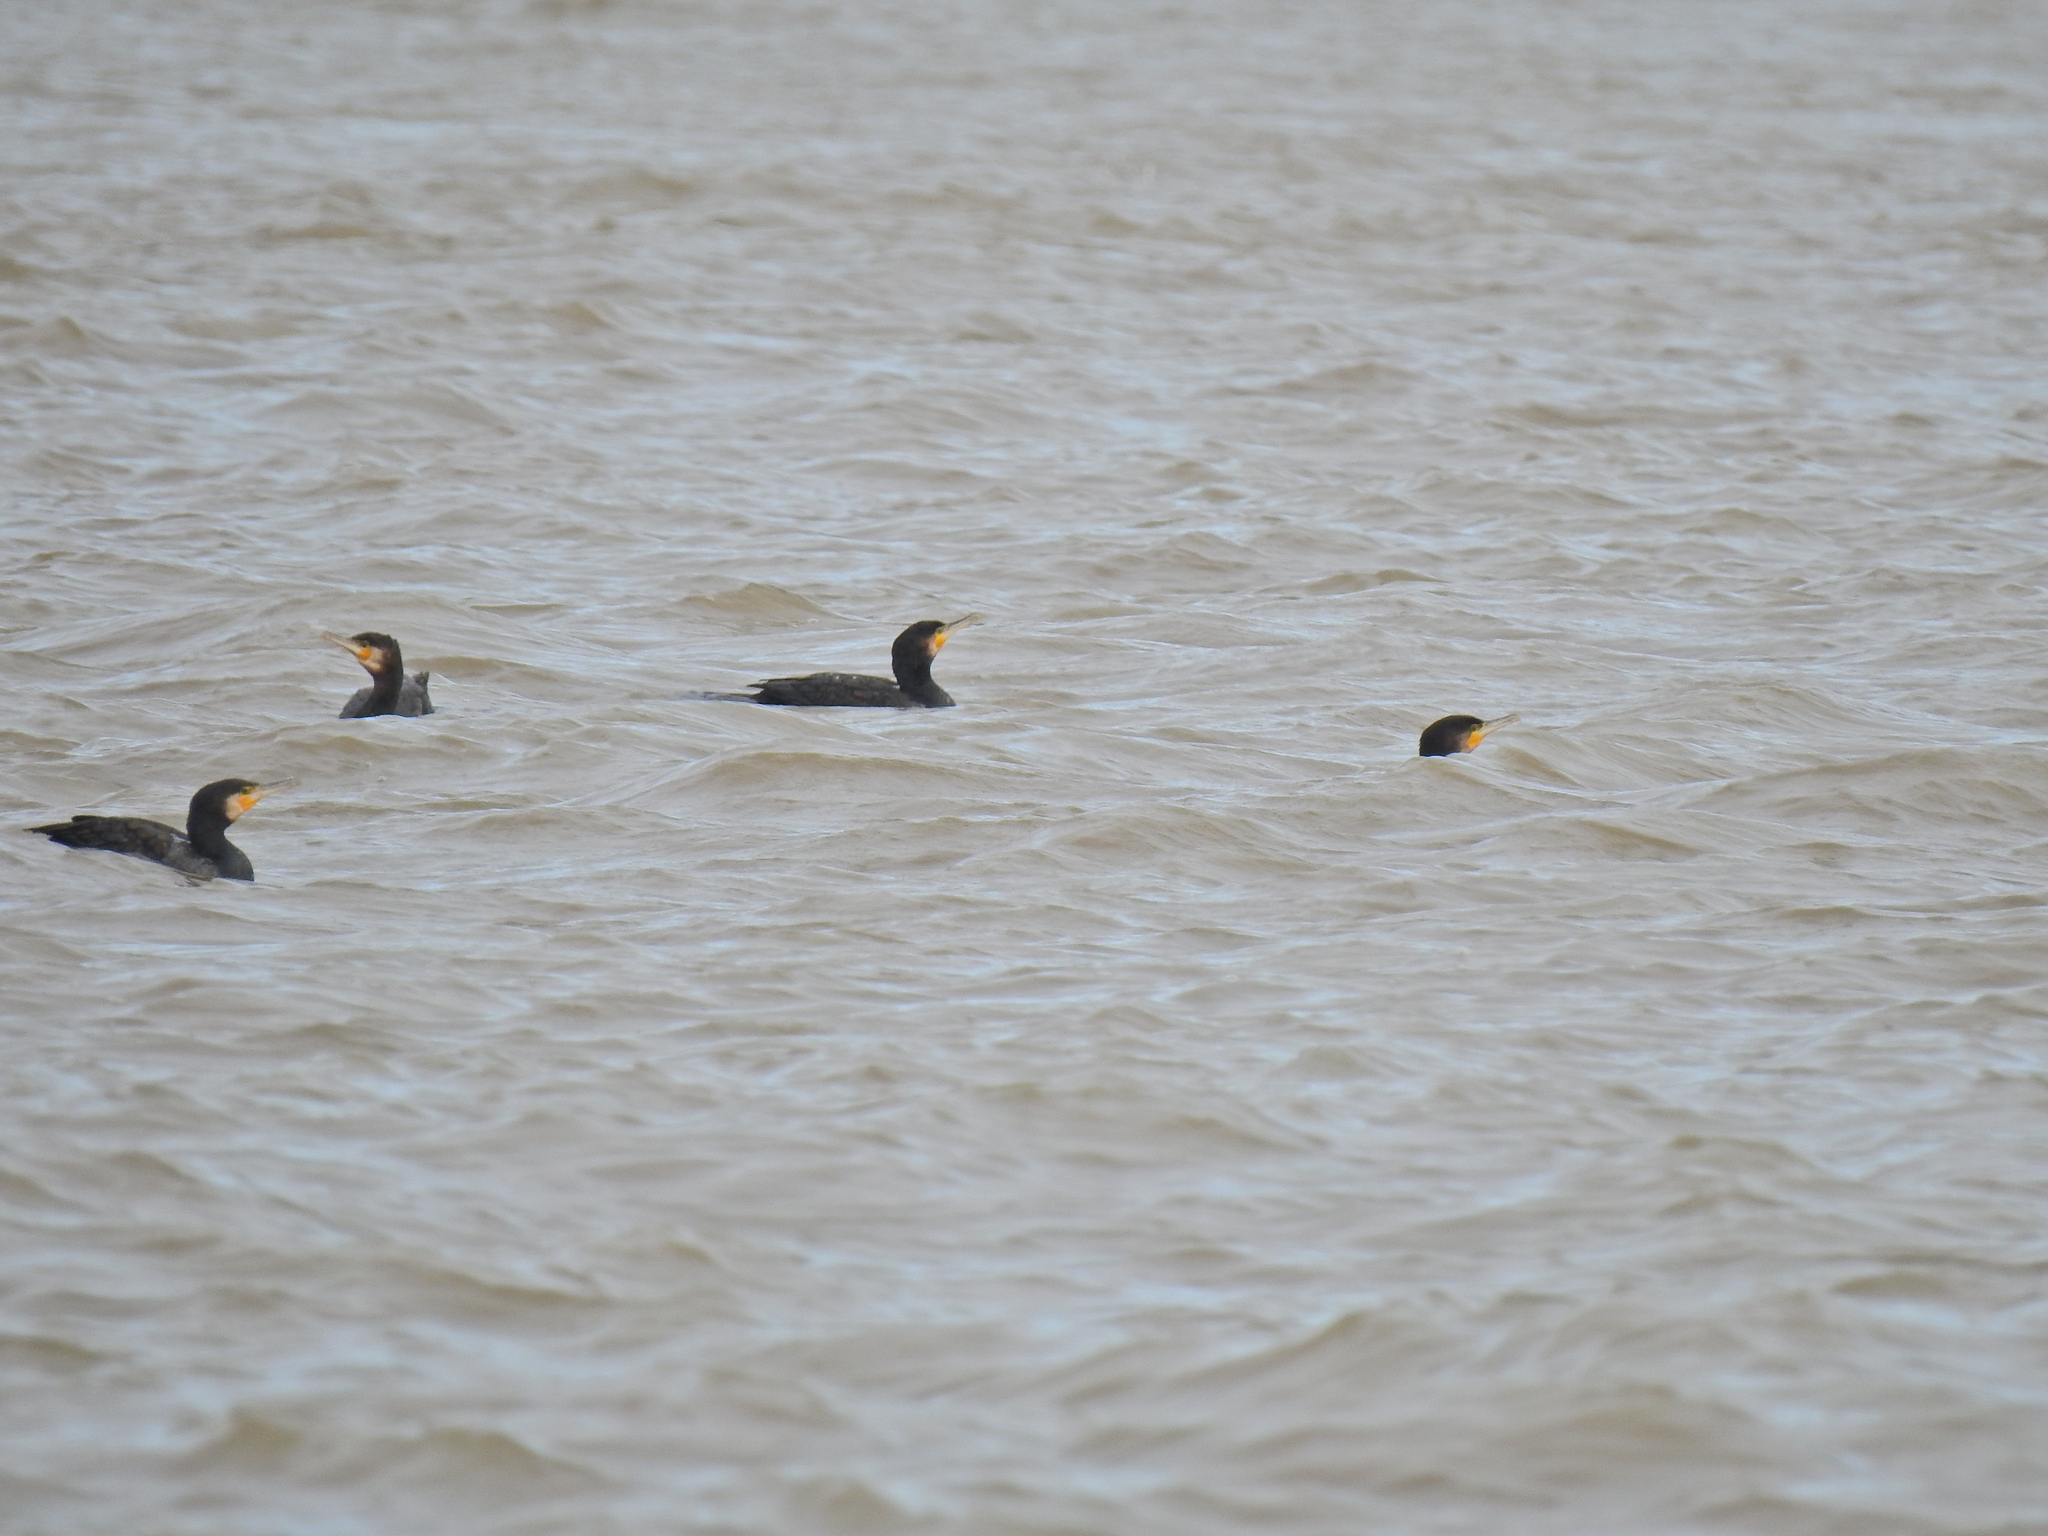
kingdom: Animalia
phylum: Chordata
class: Aves
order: Suliformes
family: Phalacrocoracidae
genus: Phalacrocorax
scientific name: Phalacrocorax carbo
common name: Great cormorant
